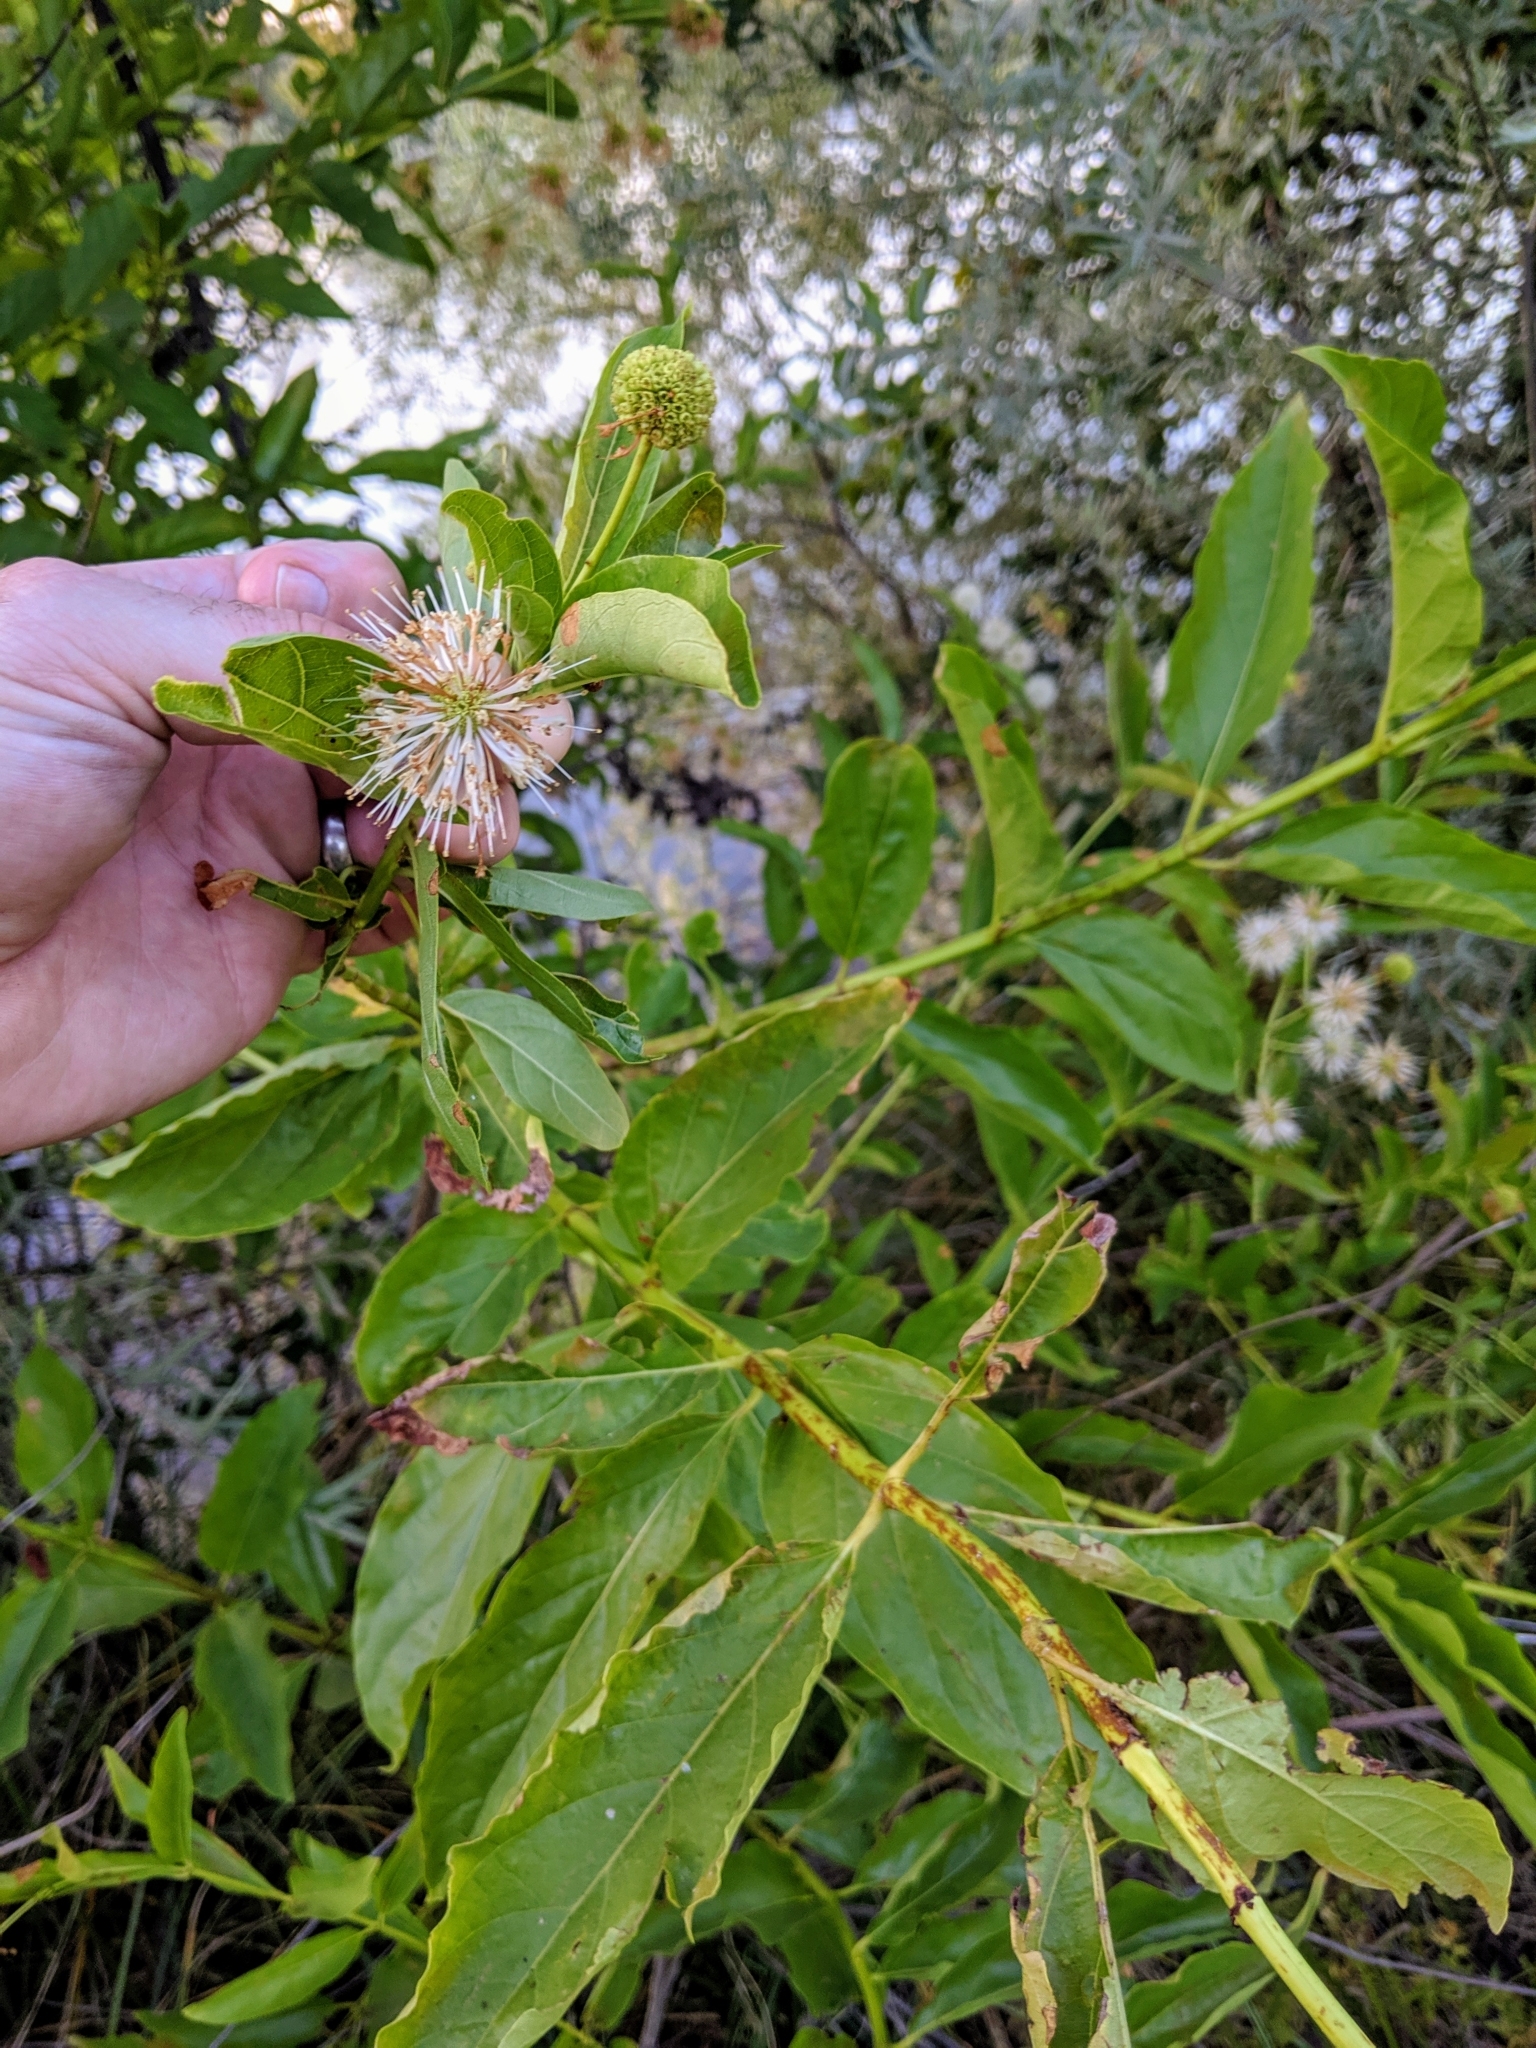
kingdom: Plantae
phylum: Tracheophyta
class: Magnoliopsida
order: Gentianales
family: Rubiaceae
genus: Cephalanthus
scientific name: Cephalanthus occidentalis
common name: Button-willow
